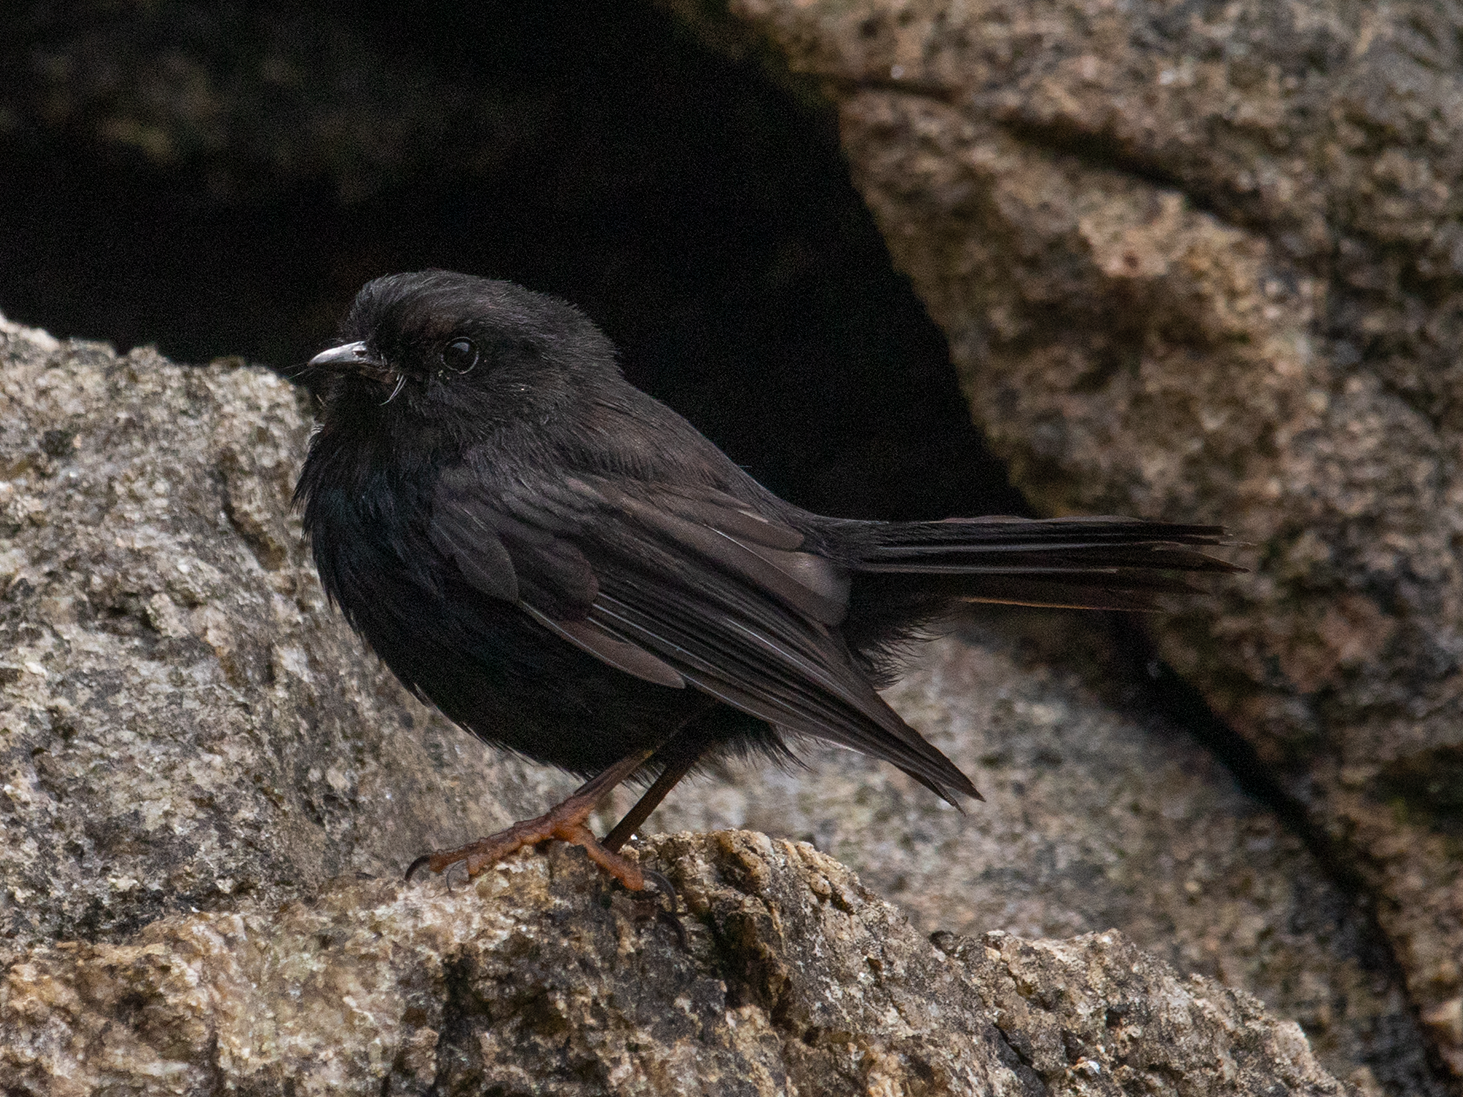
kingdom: Animalia
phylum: Chordata
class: Aves
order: Passeriformes
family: Petroicidae
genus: Petroica
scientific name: Petroica macrocephala
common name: Tomtit
